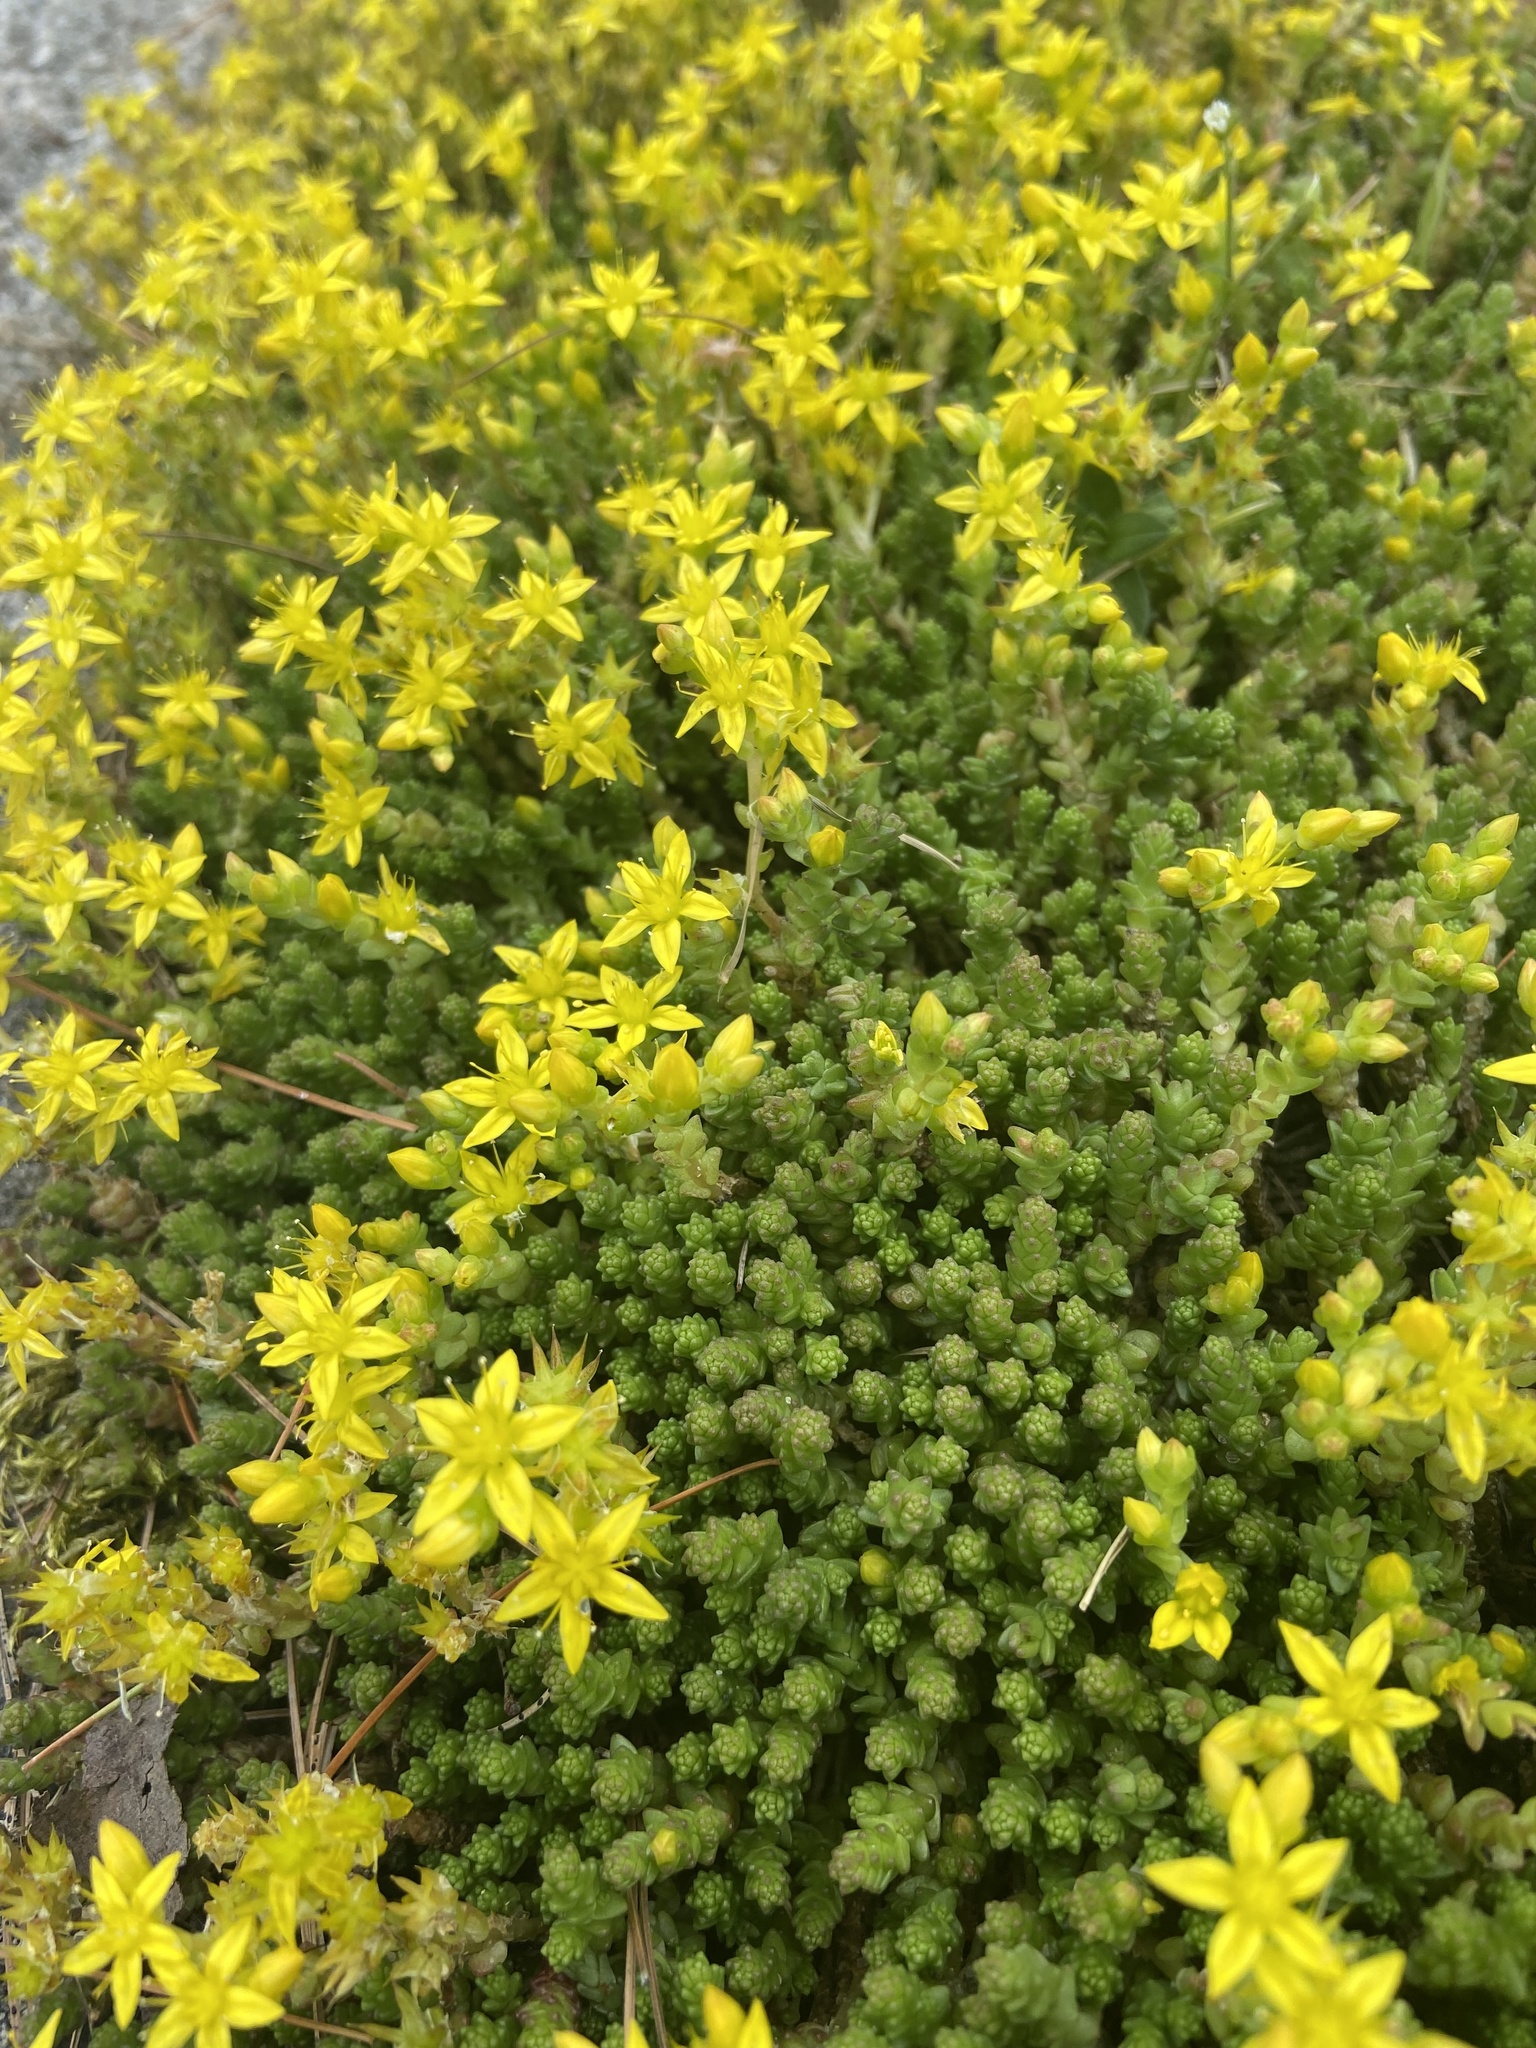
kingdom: Plantae
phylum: Tracheophyta
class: Magnoliopsida
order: Saxifragales
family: Crassulaceae
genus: Sedum
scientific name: Sedum acre
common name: Biting stonecrop
